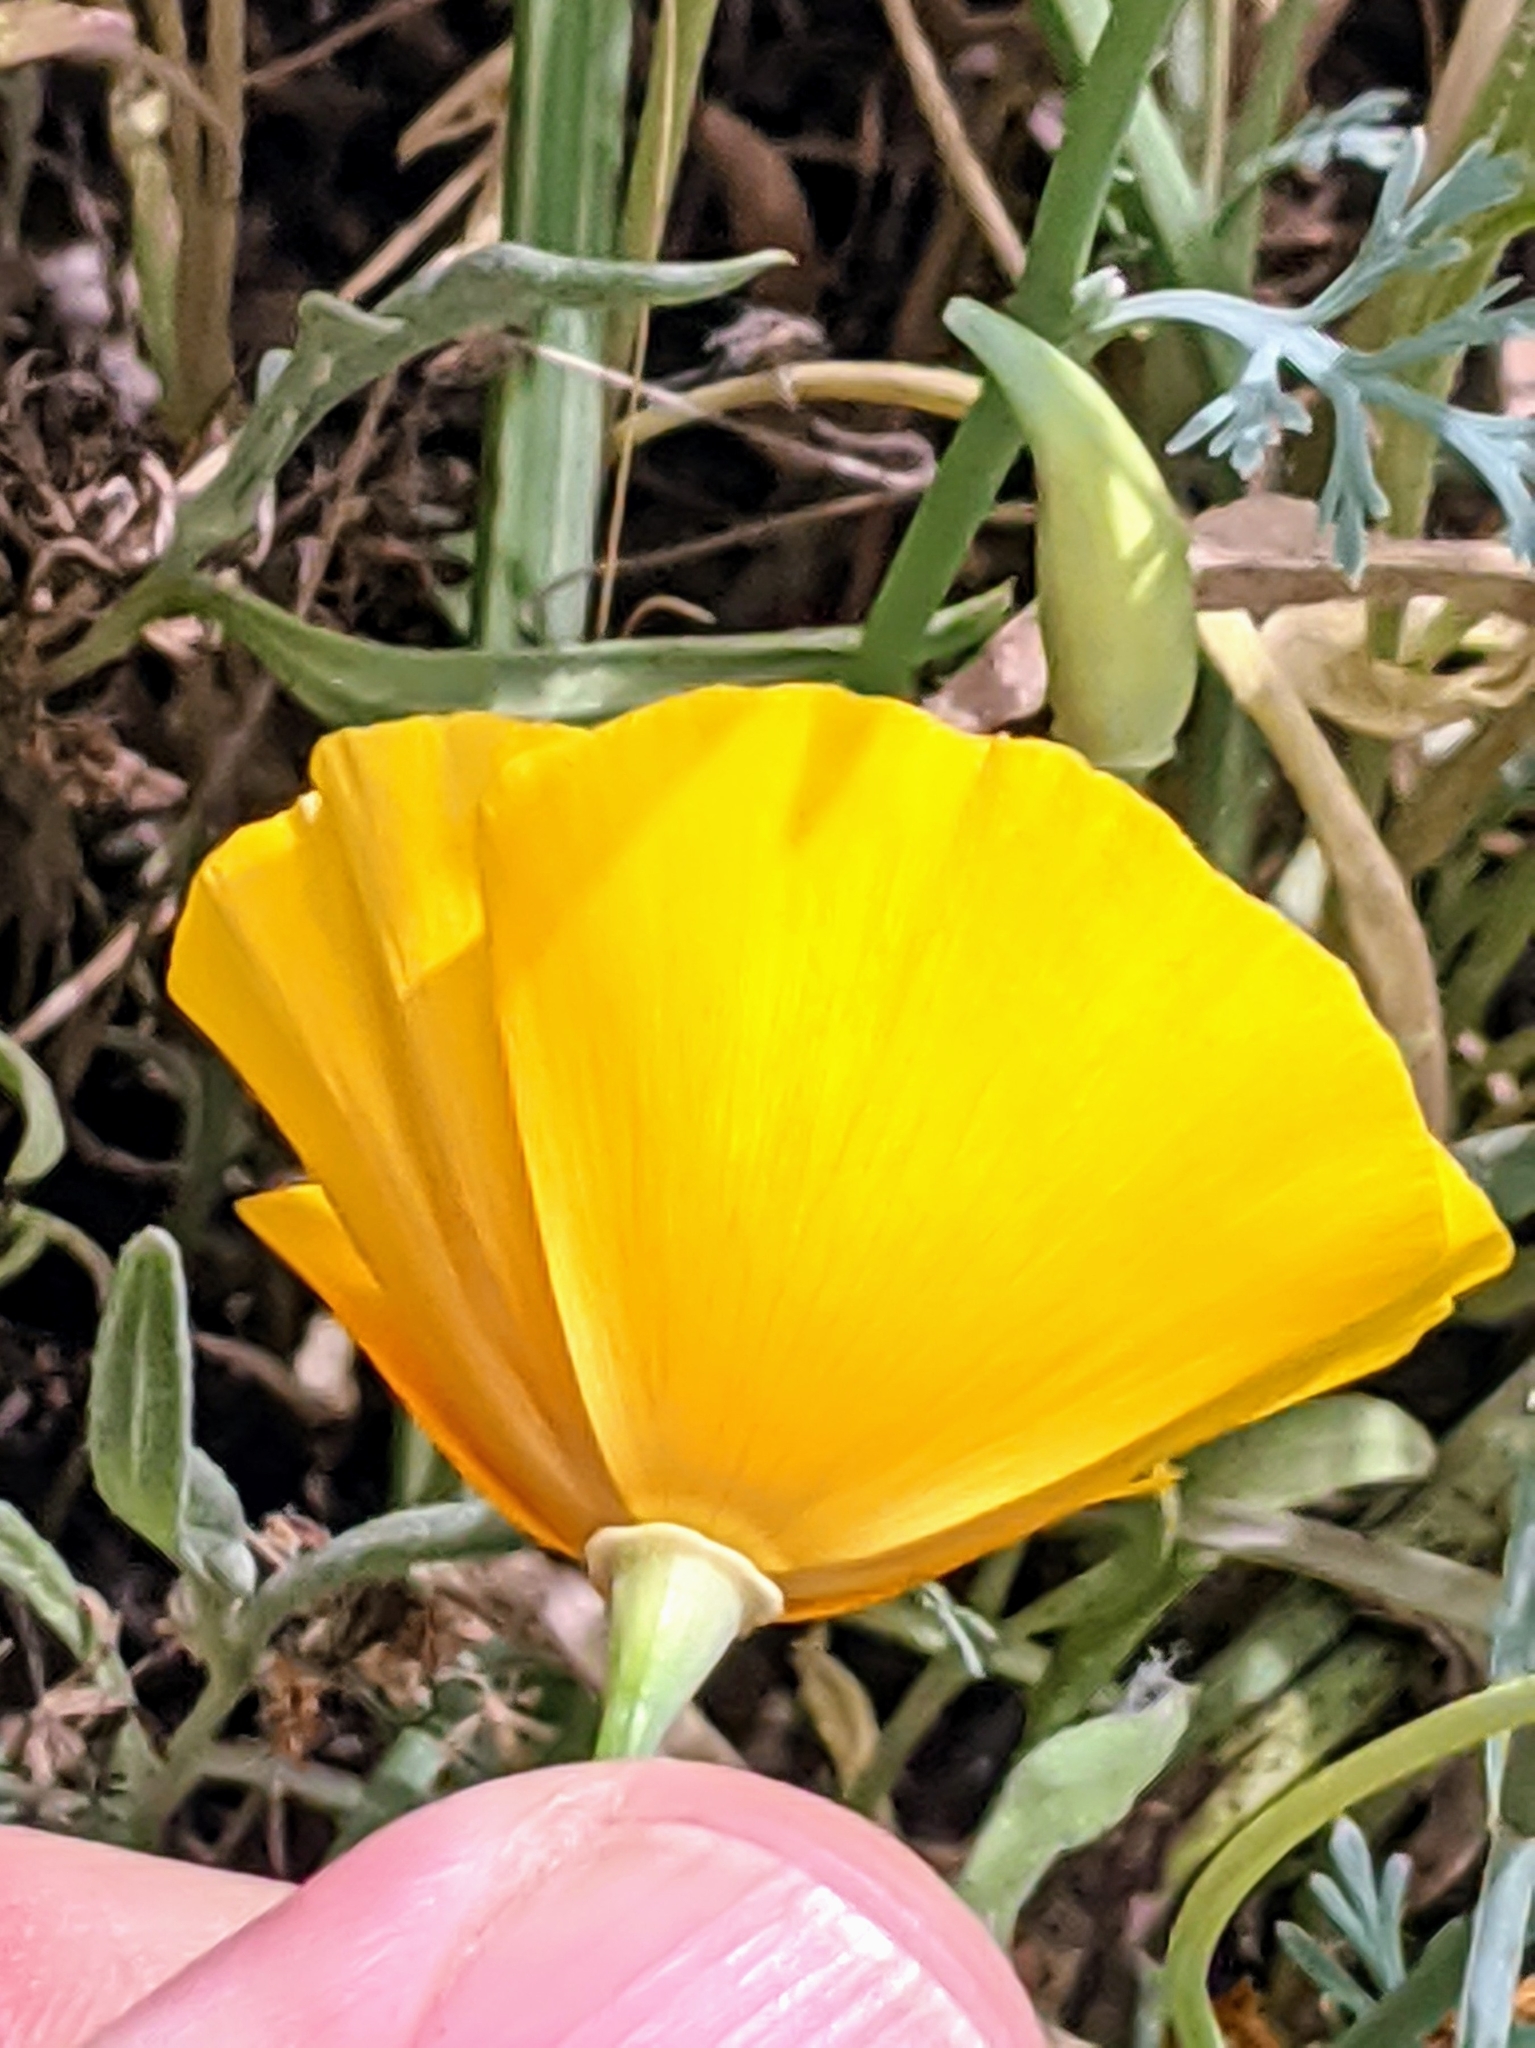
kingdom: Plantae
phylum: Tracheophyta
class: Magnoliopsida
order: Ranunculales
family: Papaveraceae
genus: Eschscholzia
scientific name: Eschscholzia californica
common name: California poppy
